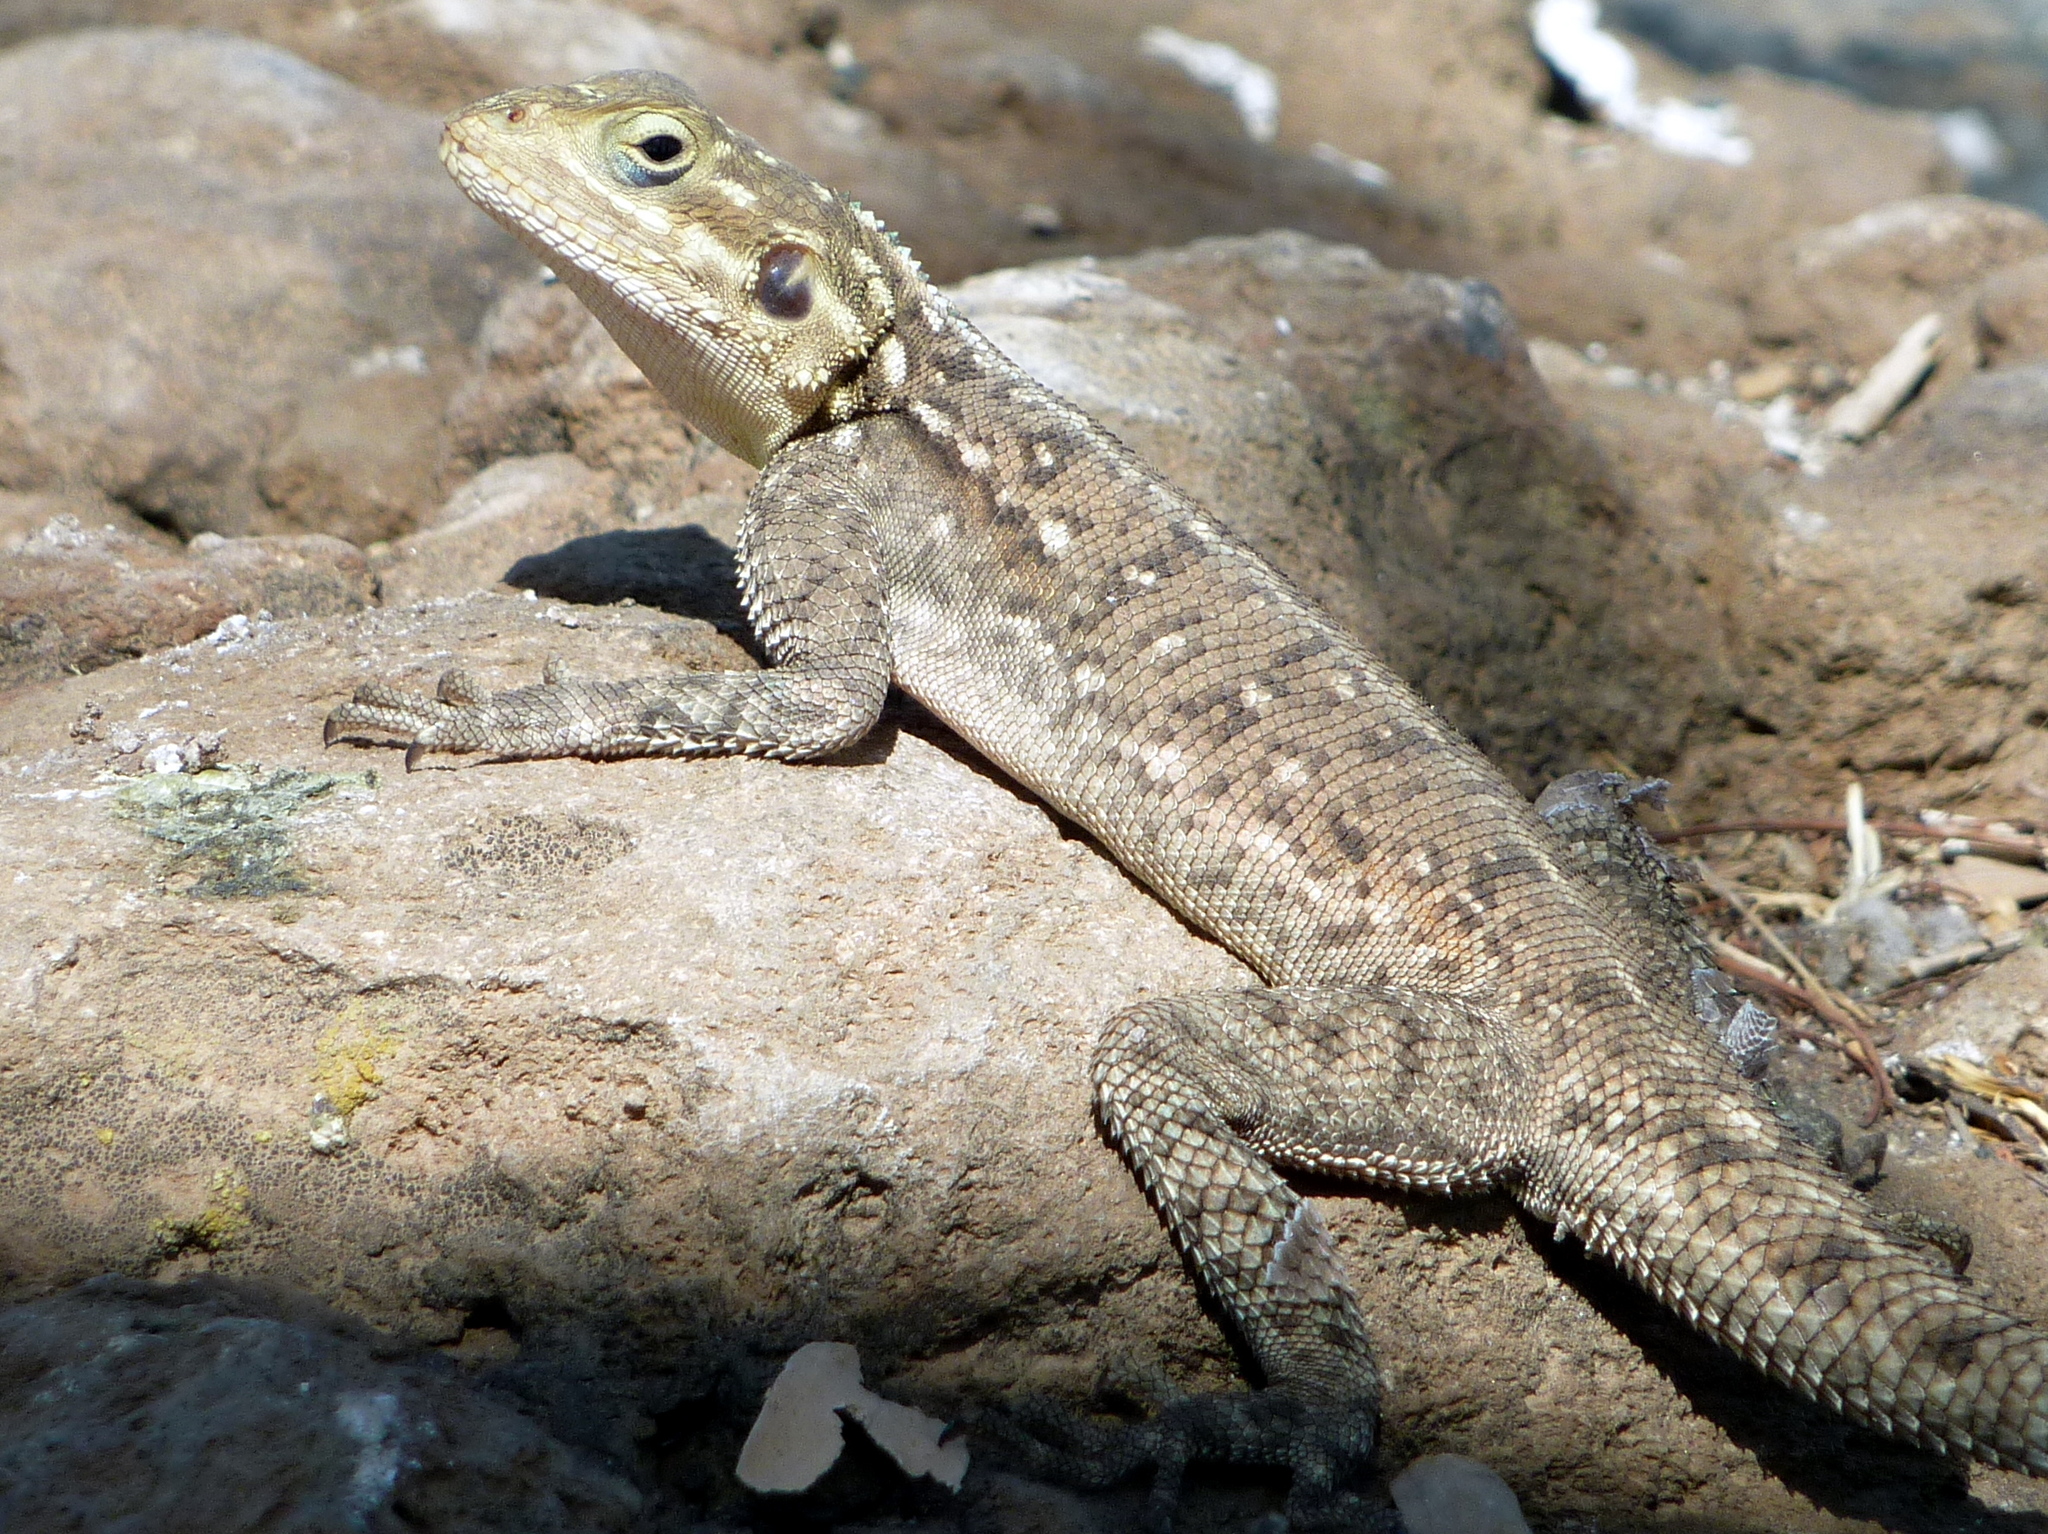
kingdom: Animalia
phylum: Chordata
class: Squamata
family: Agamidae
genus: Agama
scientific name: Agama lionotus
